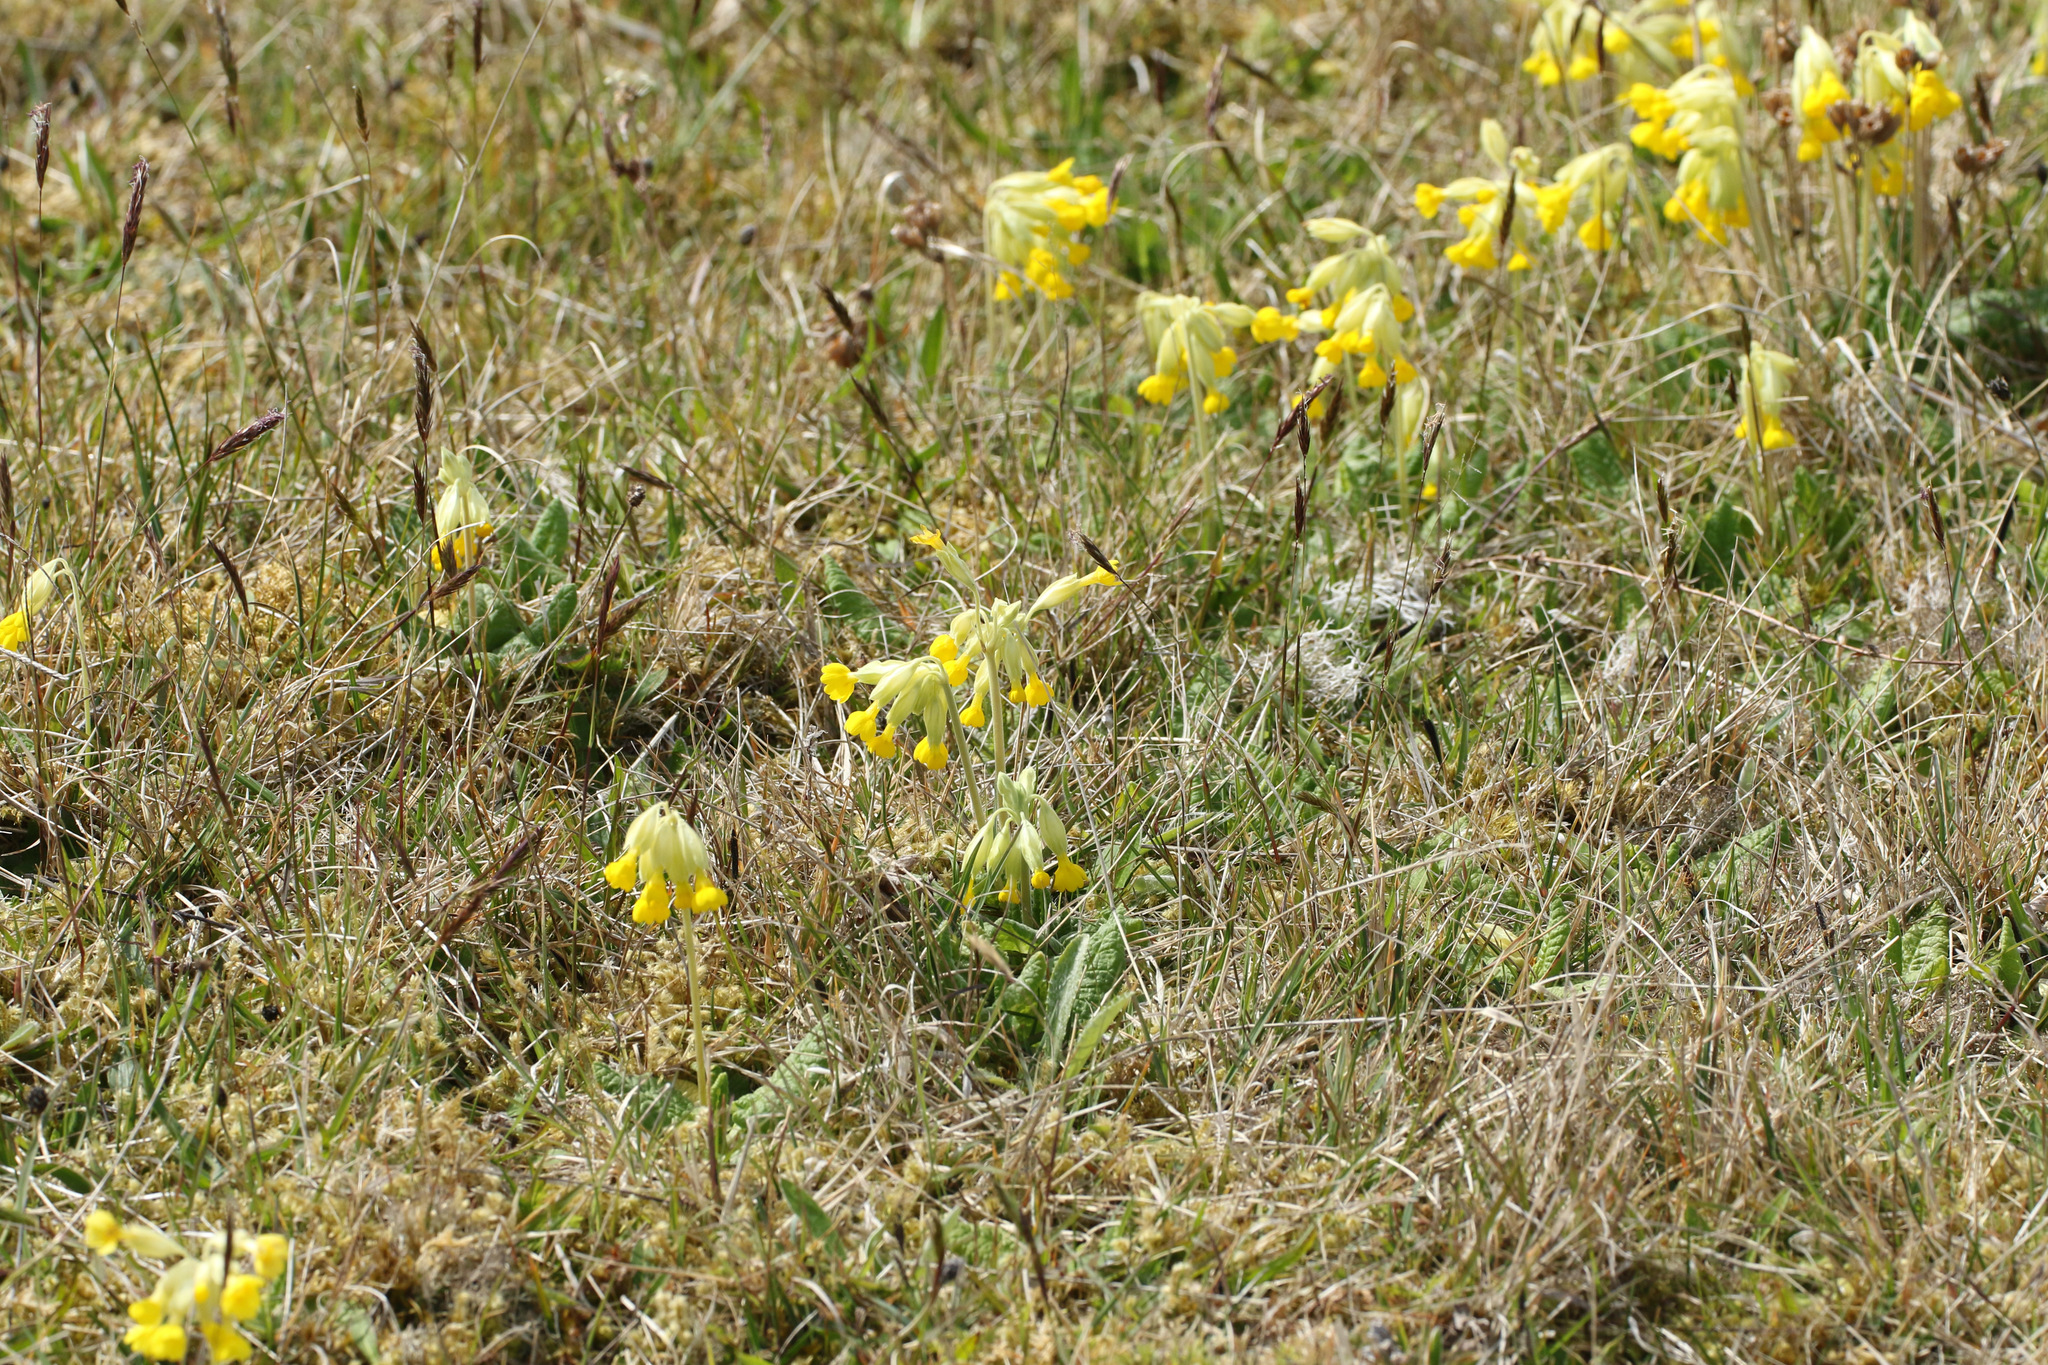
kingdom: Plantae
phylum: Tracheophyta
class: Magnoliopsida
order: Ericales
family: Primulaceae
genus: Primula
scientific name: Primula veris
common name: Cowslip
